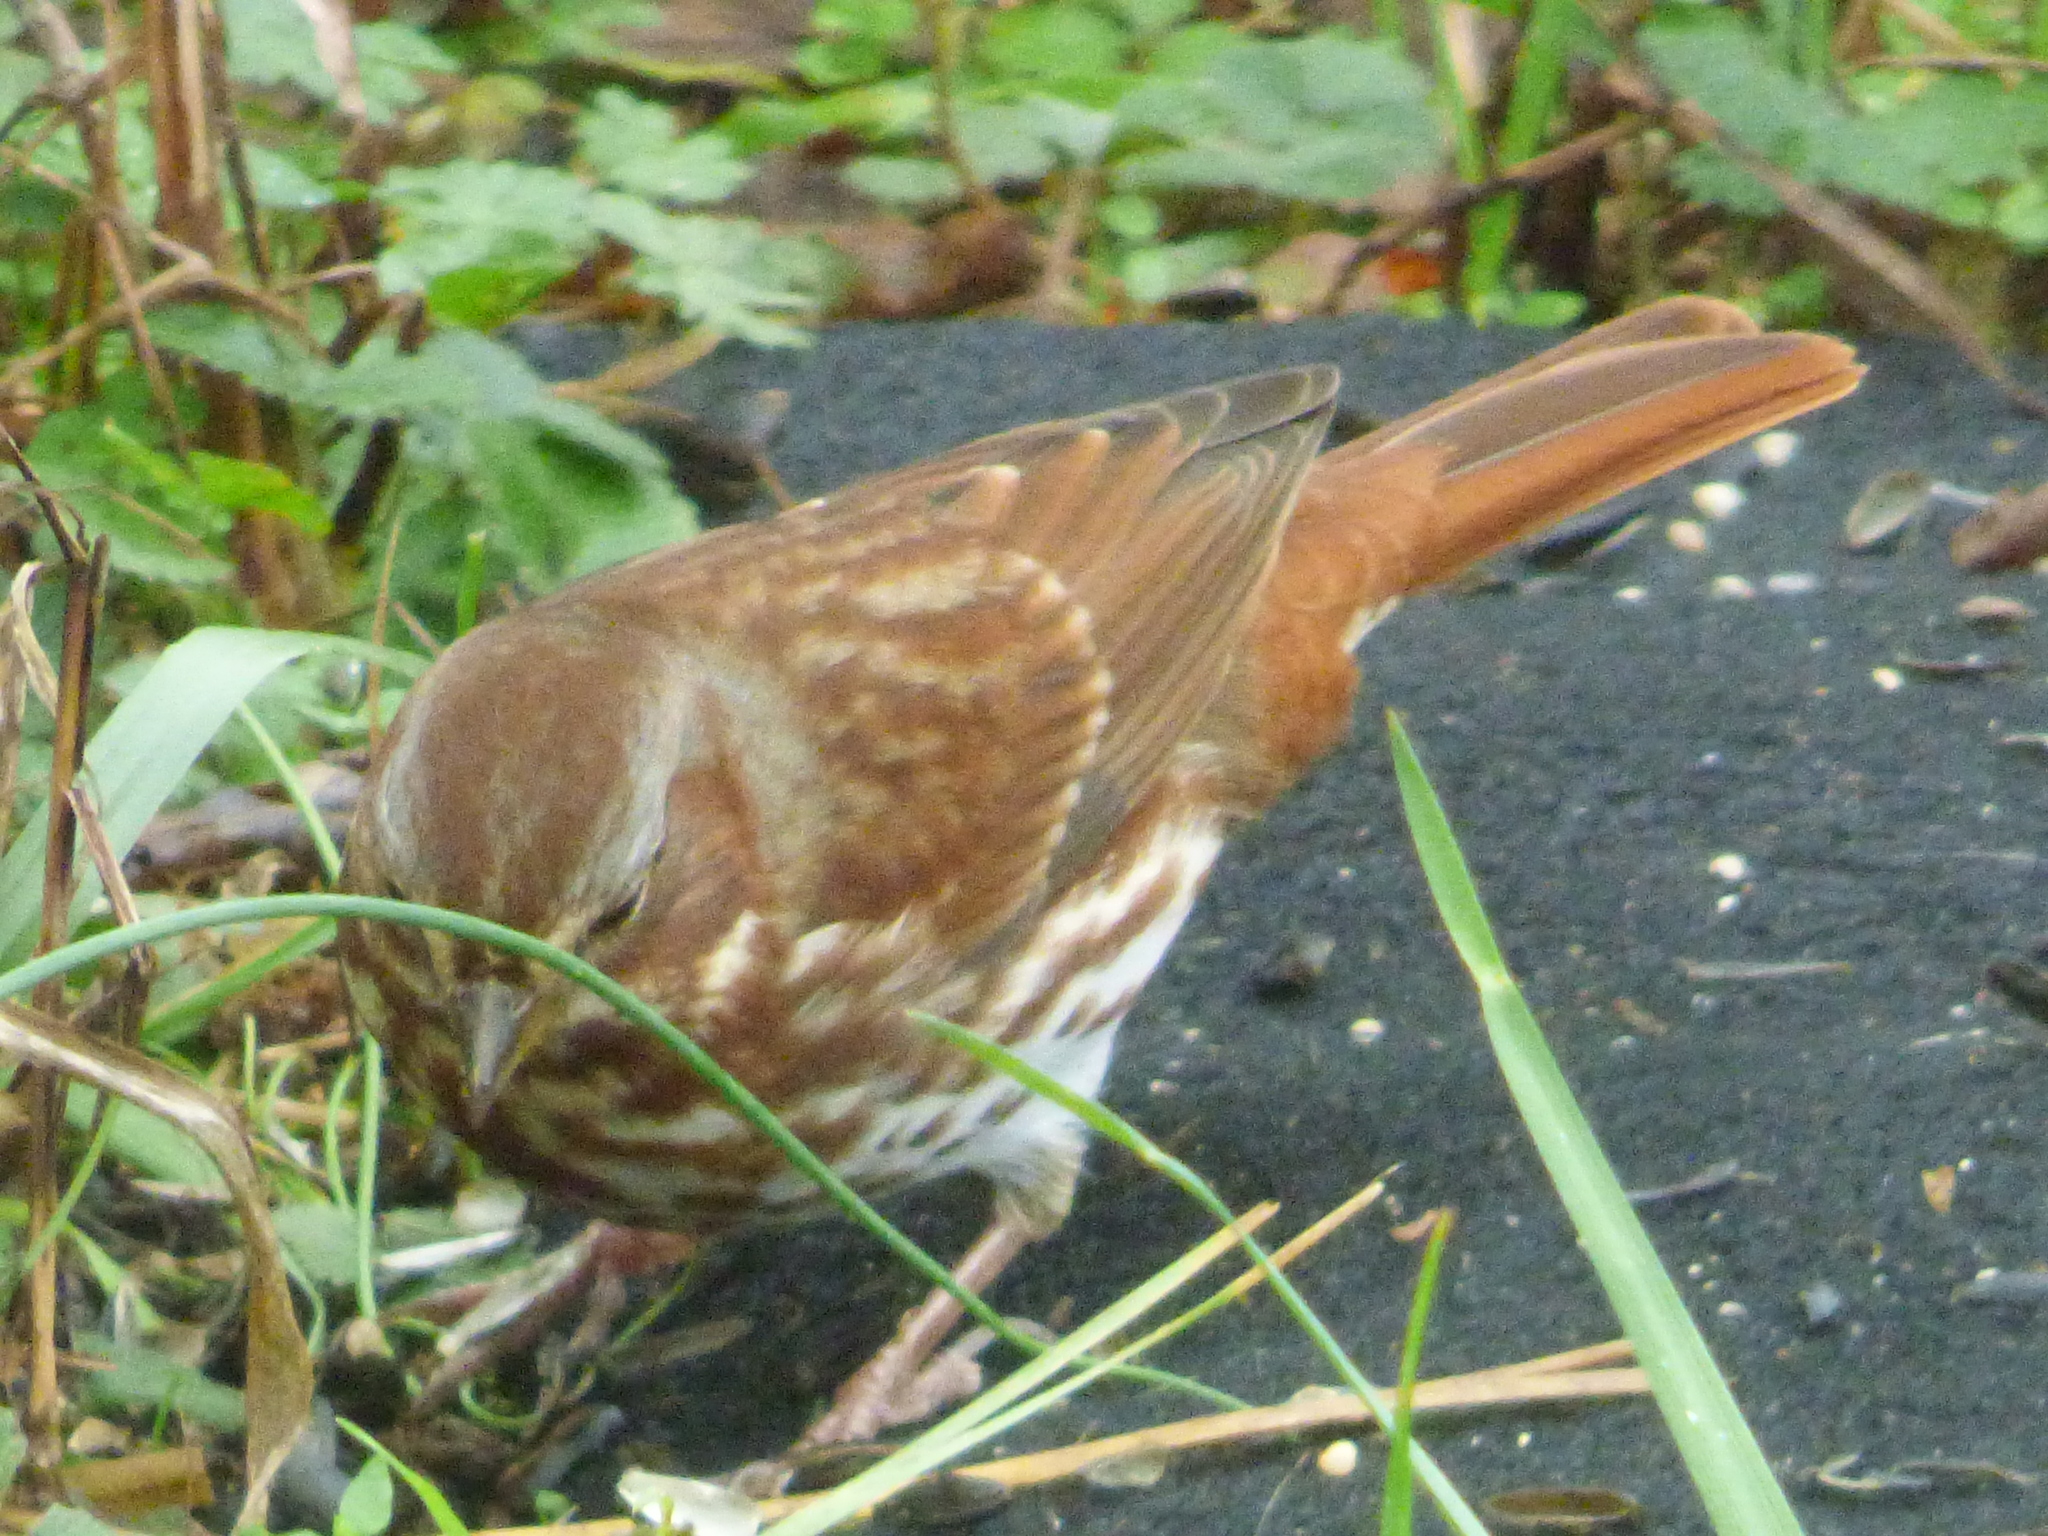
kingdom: Animalia
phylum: Chordata
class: Aves
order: Passeriformes
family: Passerellidae
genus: Passerella
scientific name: Passerella iliaca
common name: Fox sparrow
